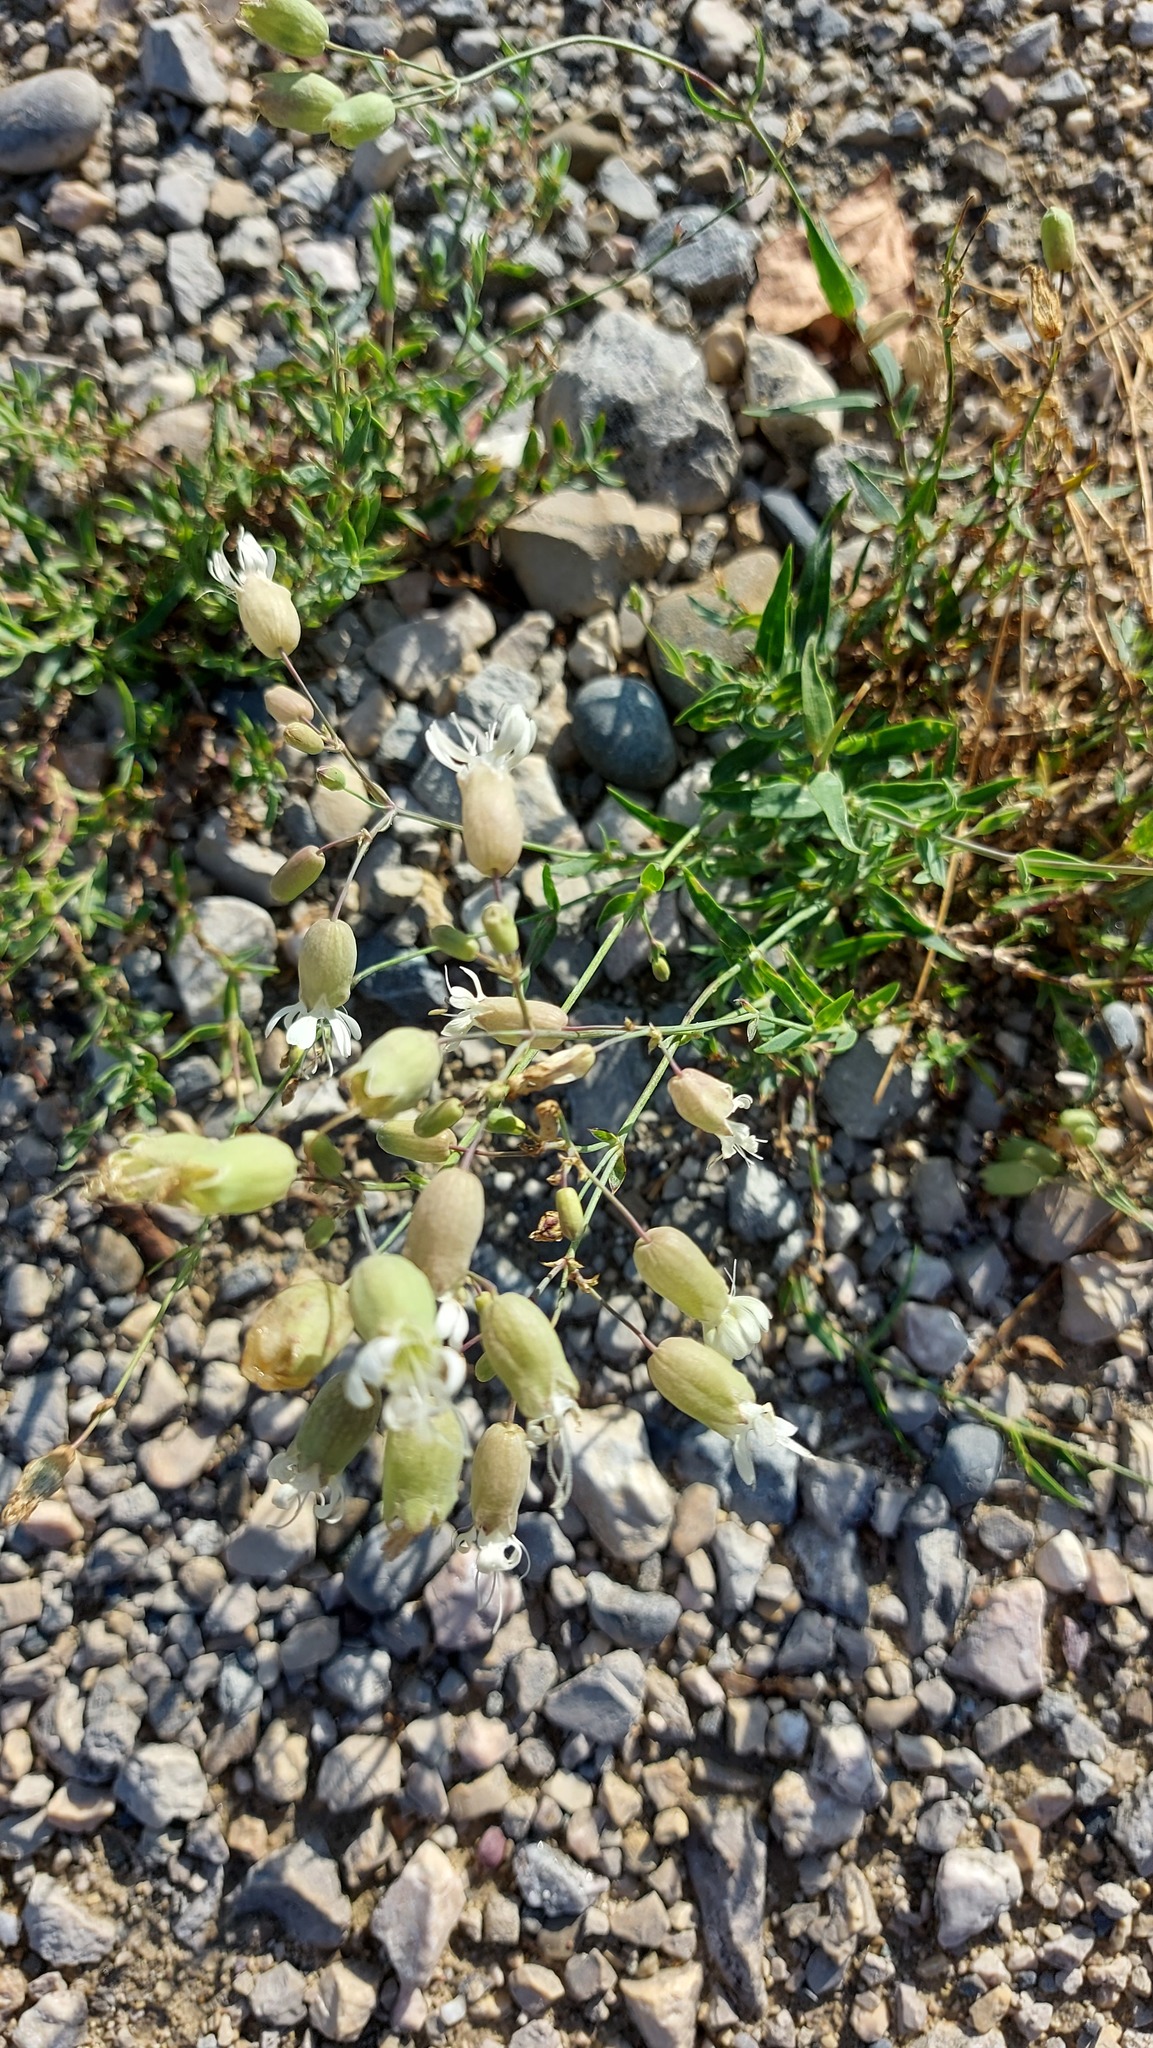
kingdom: Plantae
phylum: Tracheophyta
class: Magnoliopsida
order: Caryophyllales
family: Caryophyllaceae
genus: Silene
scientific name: Silene vulgaris
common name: Bladder campion
